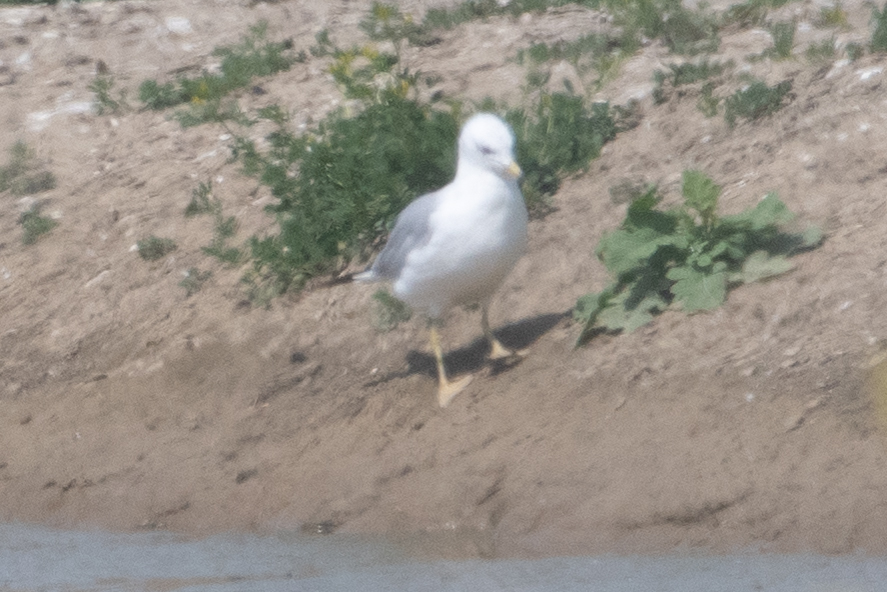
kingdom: Animalia
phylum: Chordata
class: Aves
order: Charadriiformes
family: Laridae
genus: Larus
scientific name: Larus delawarensis
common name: Ring-billed gull
